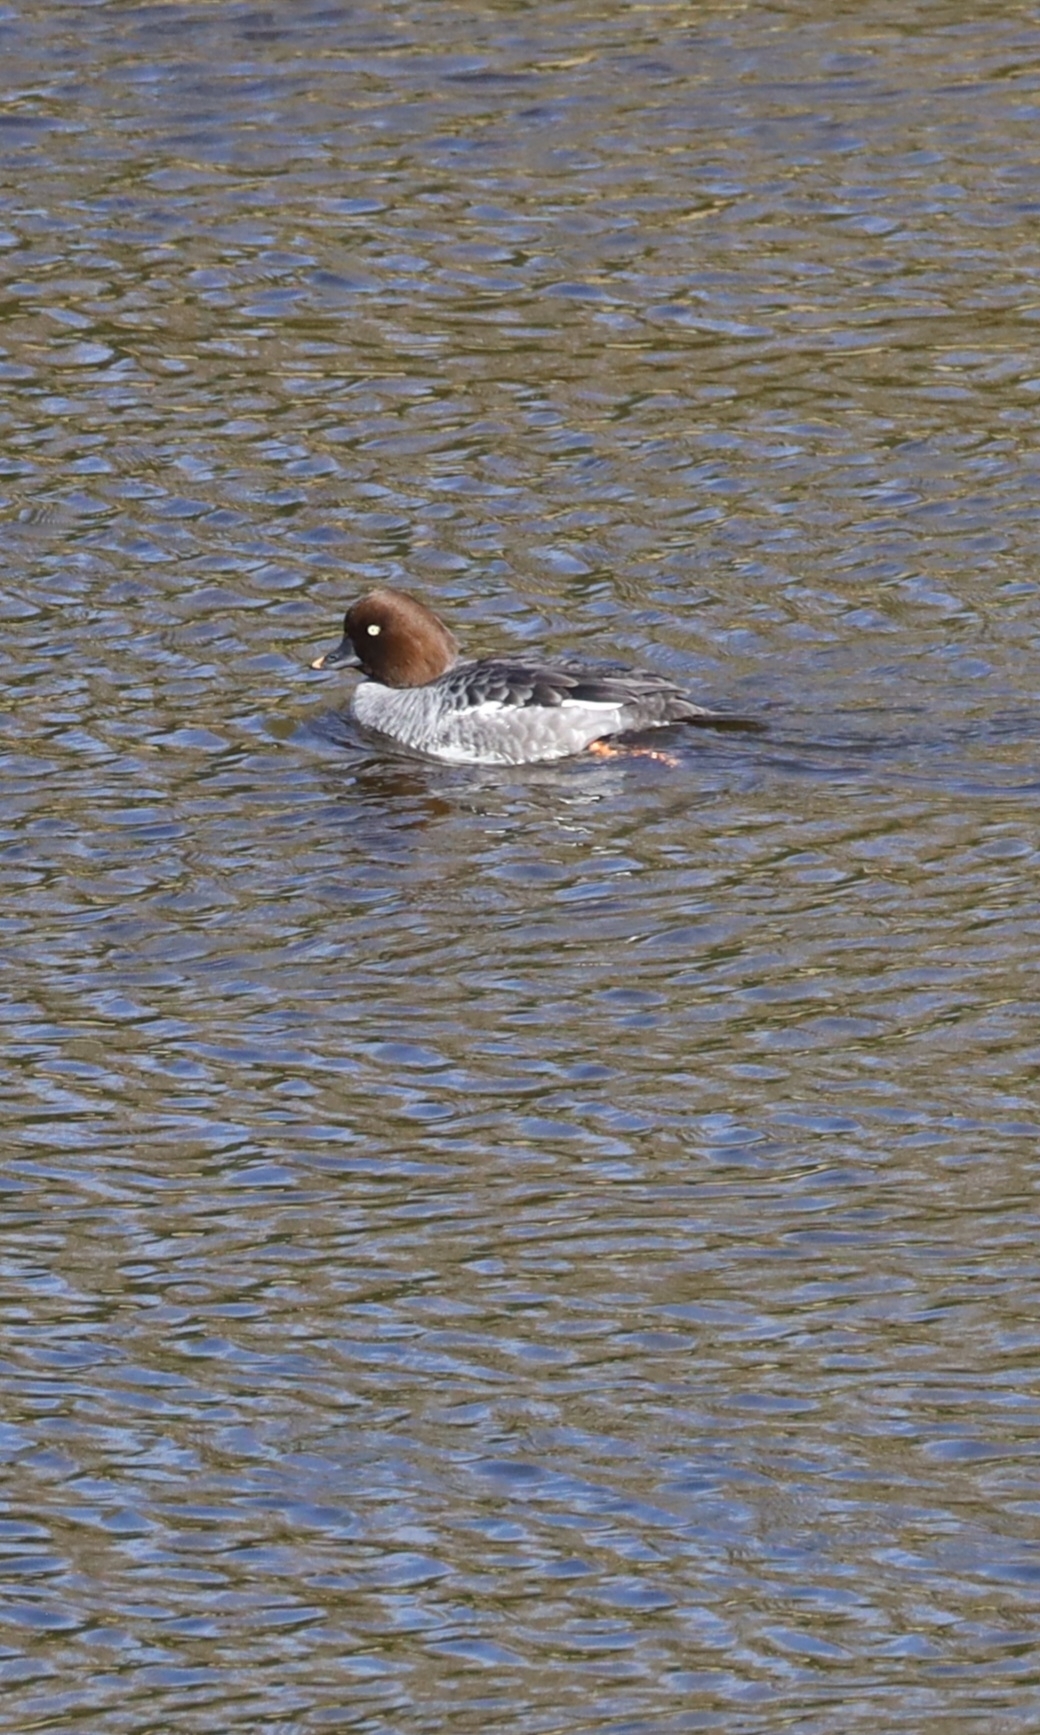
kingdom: Animalia
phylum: Chordata
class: Aves
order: Anseriformes
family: Anatidae
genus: Bucephala
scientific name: Bucephala clangula
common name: Common goldeneye
